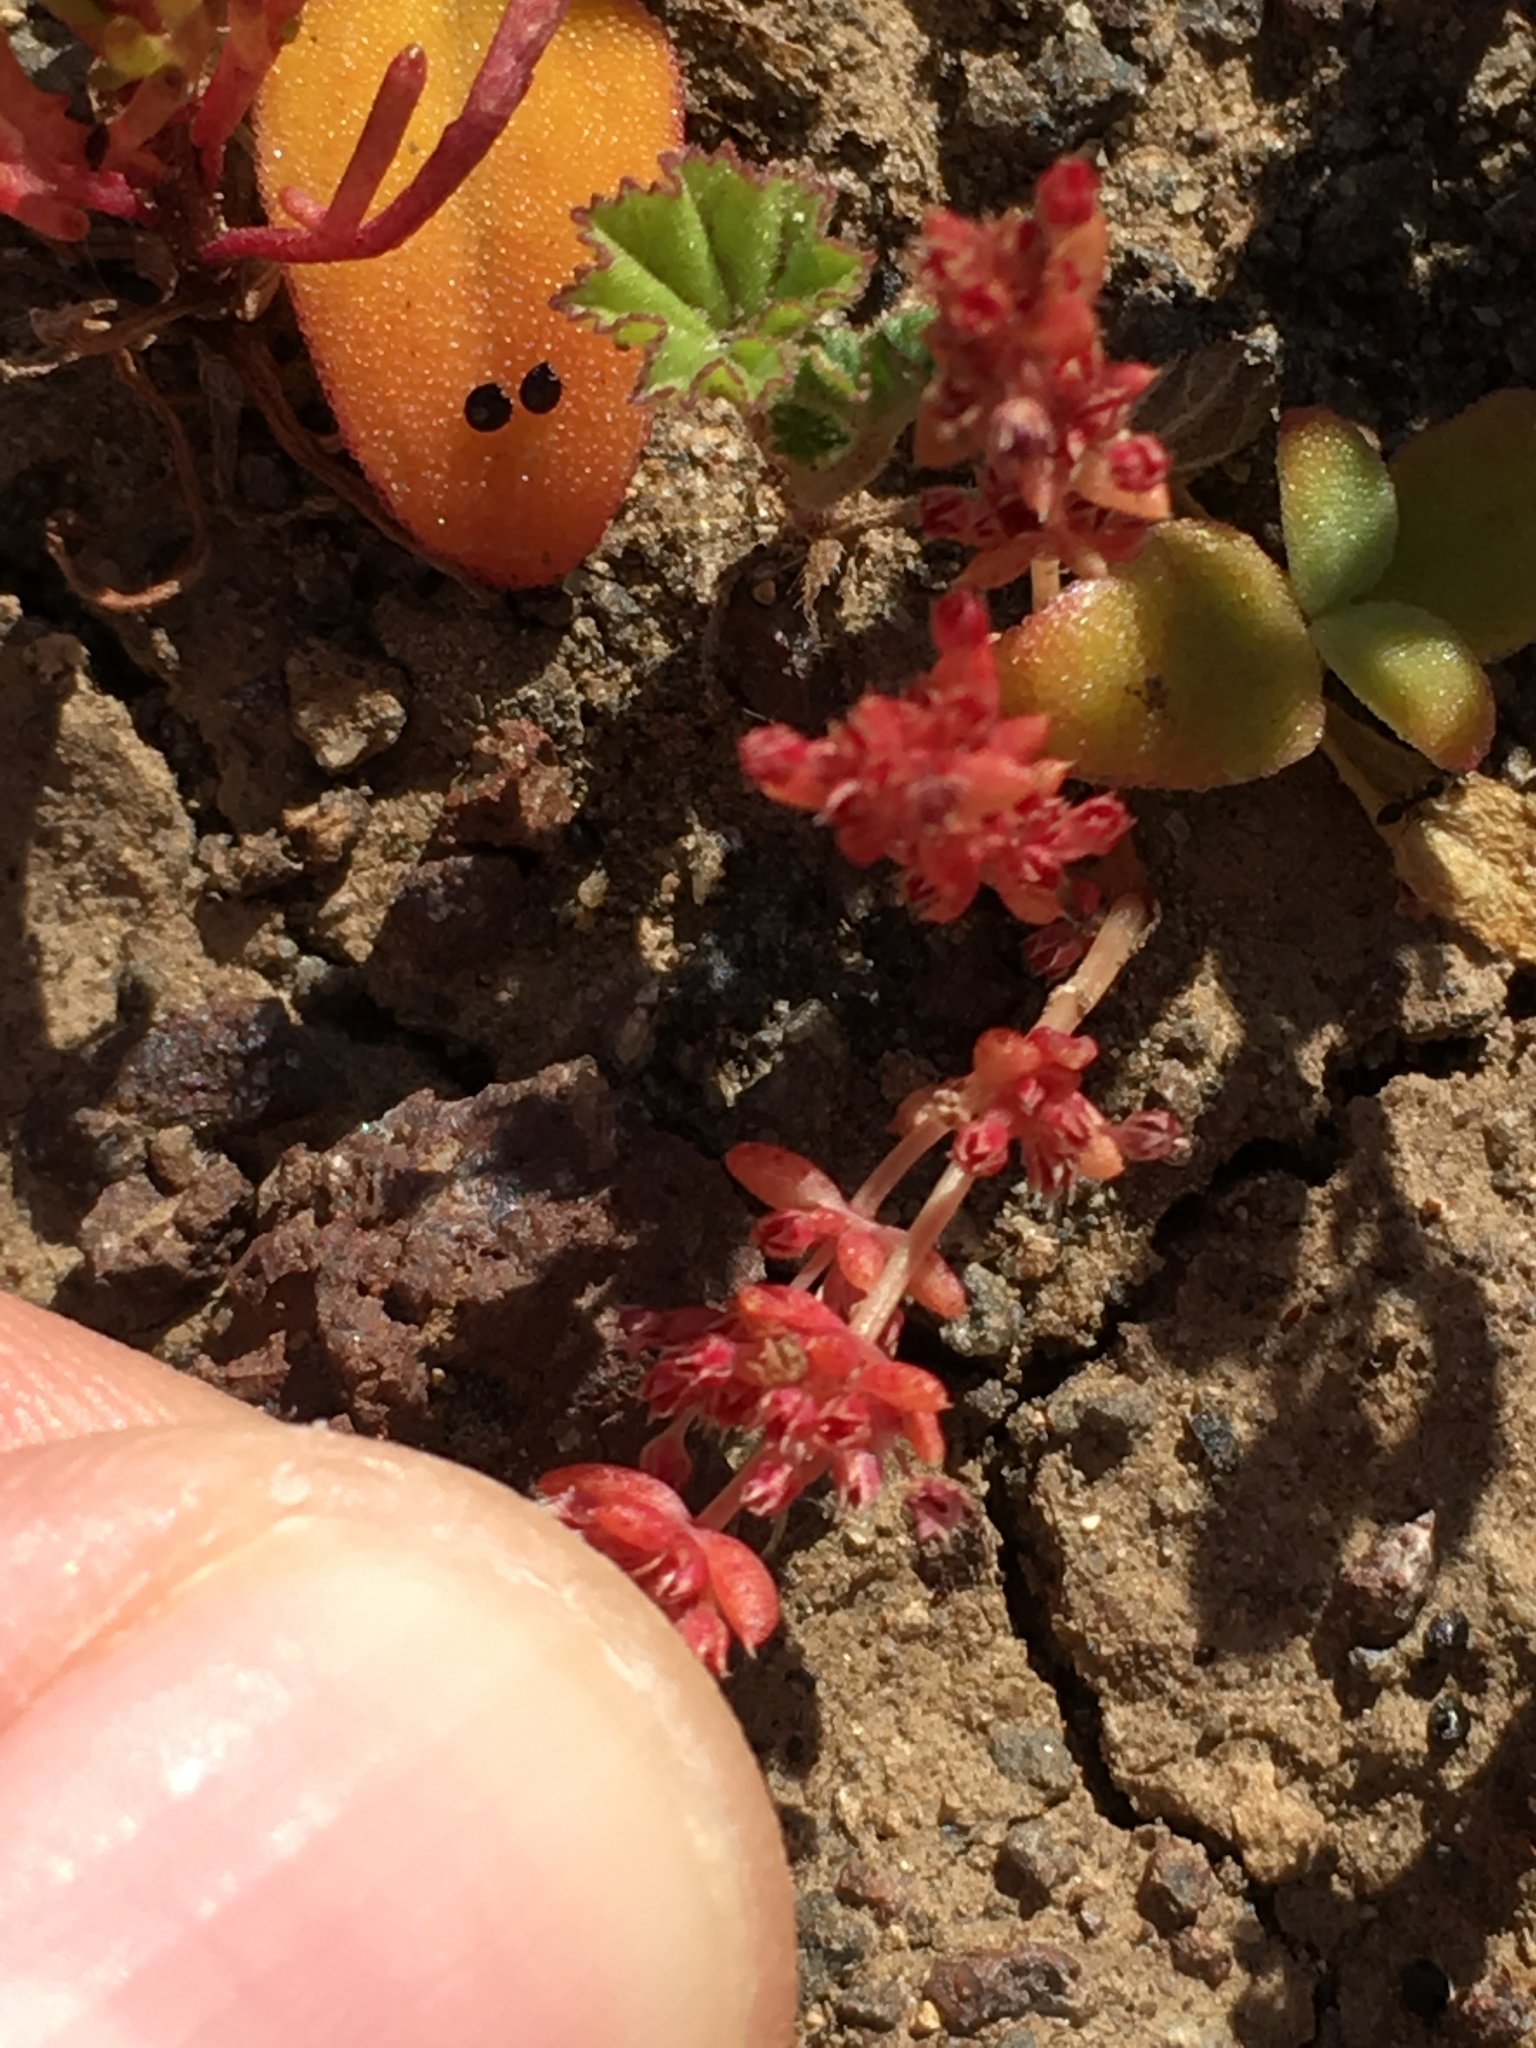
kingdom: Plantae
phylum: Tracheophyta
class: Magnoliopsida
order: Saxifragales
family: Crassulaceae
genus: Crassula
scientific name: Crassula connata
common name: Erect pygmyweed
